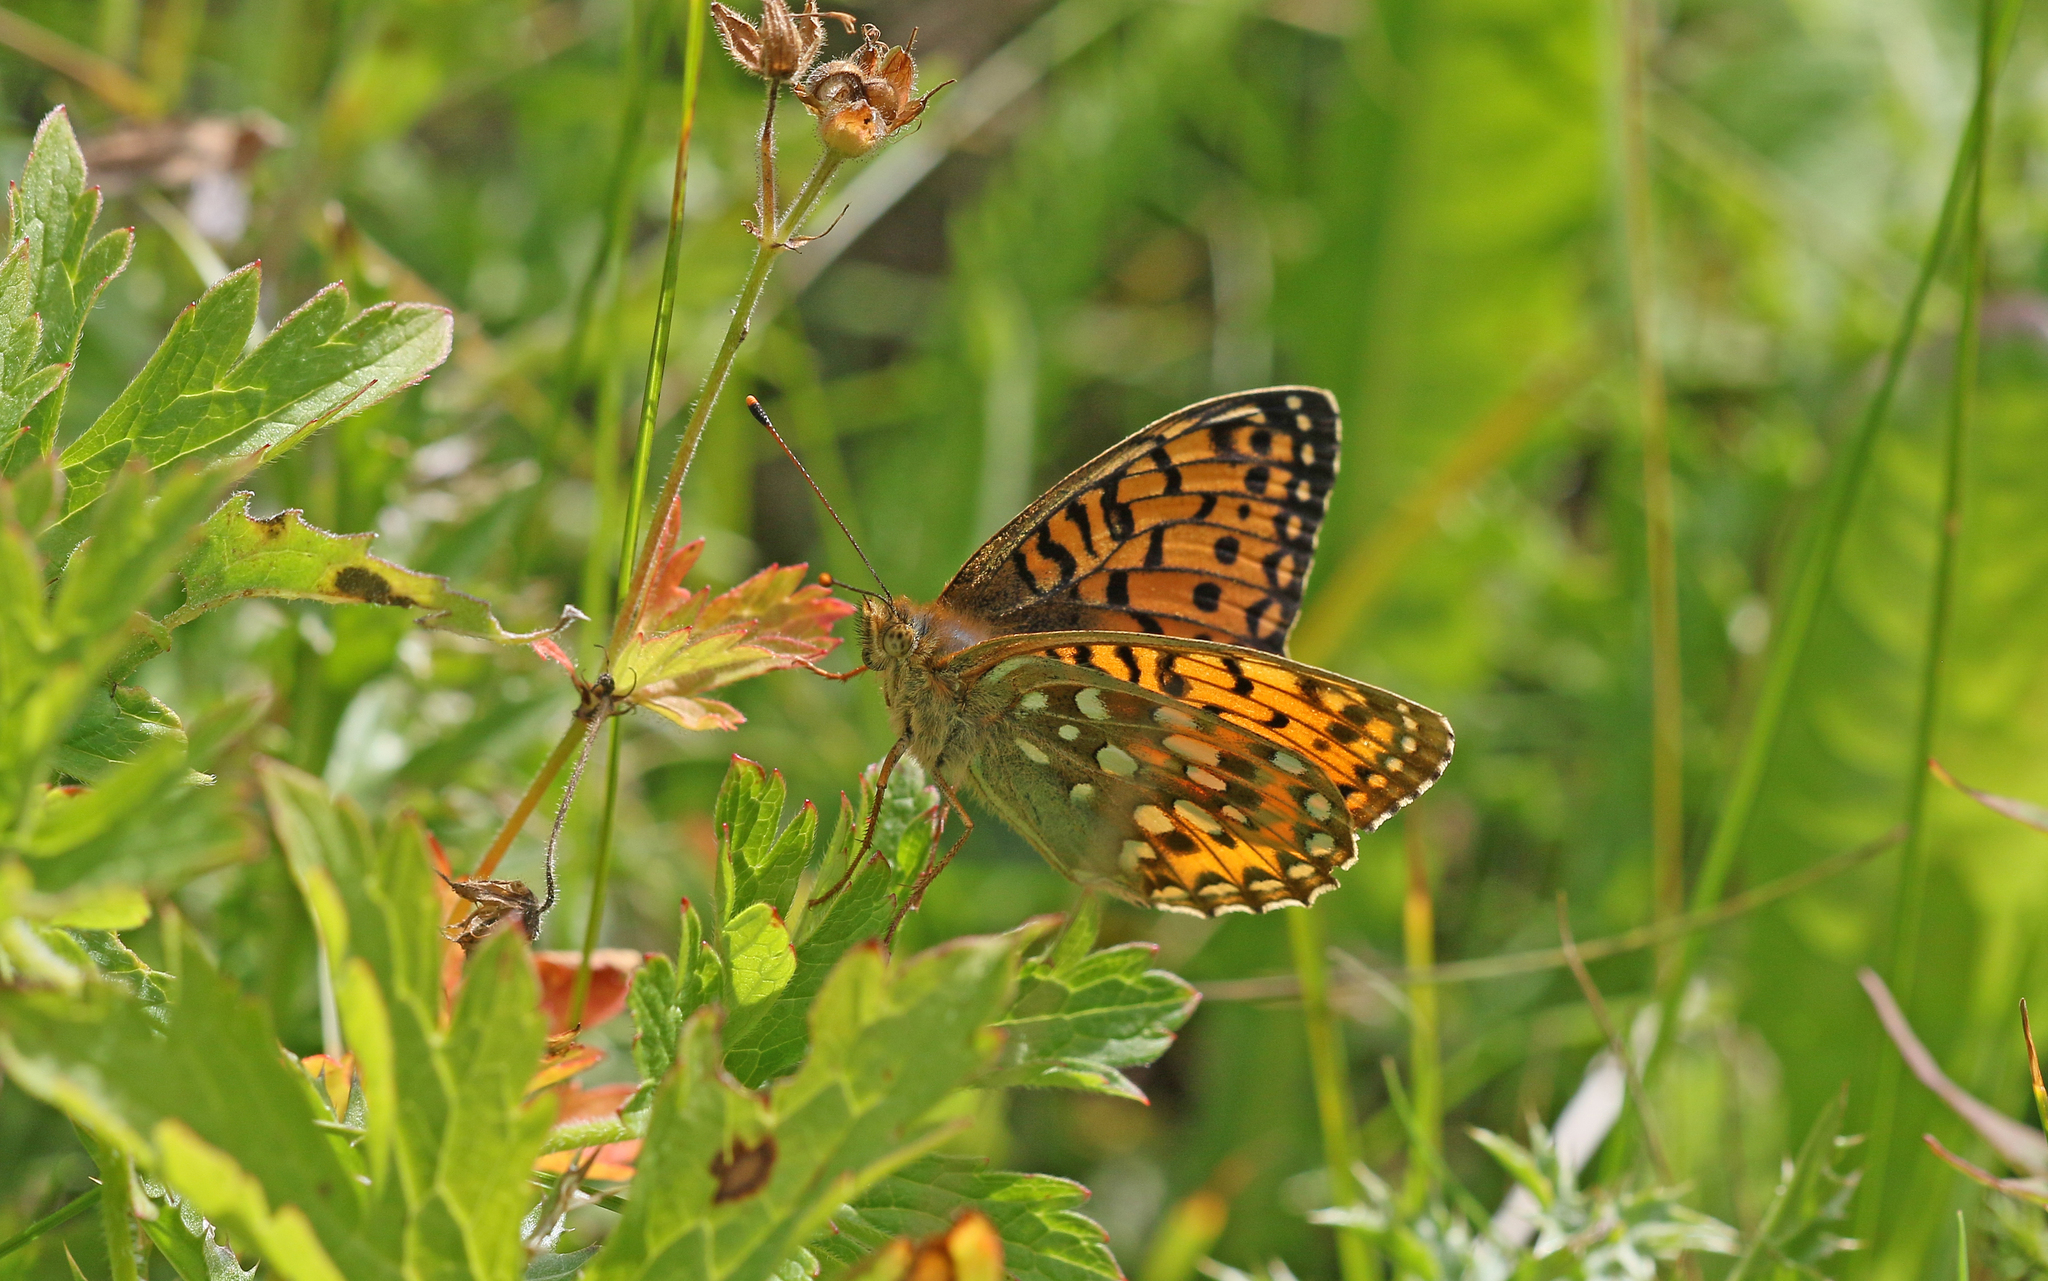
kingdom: Animalia
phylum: Arthropoda
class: Insecta
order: Lepidoptera
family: Nymphalidae
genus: Speyeria
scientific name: Speyeria aglaja
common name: Dark green fritillary
